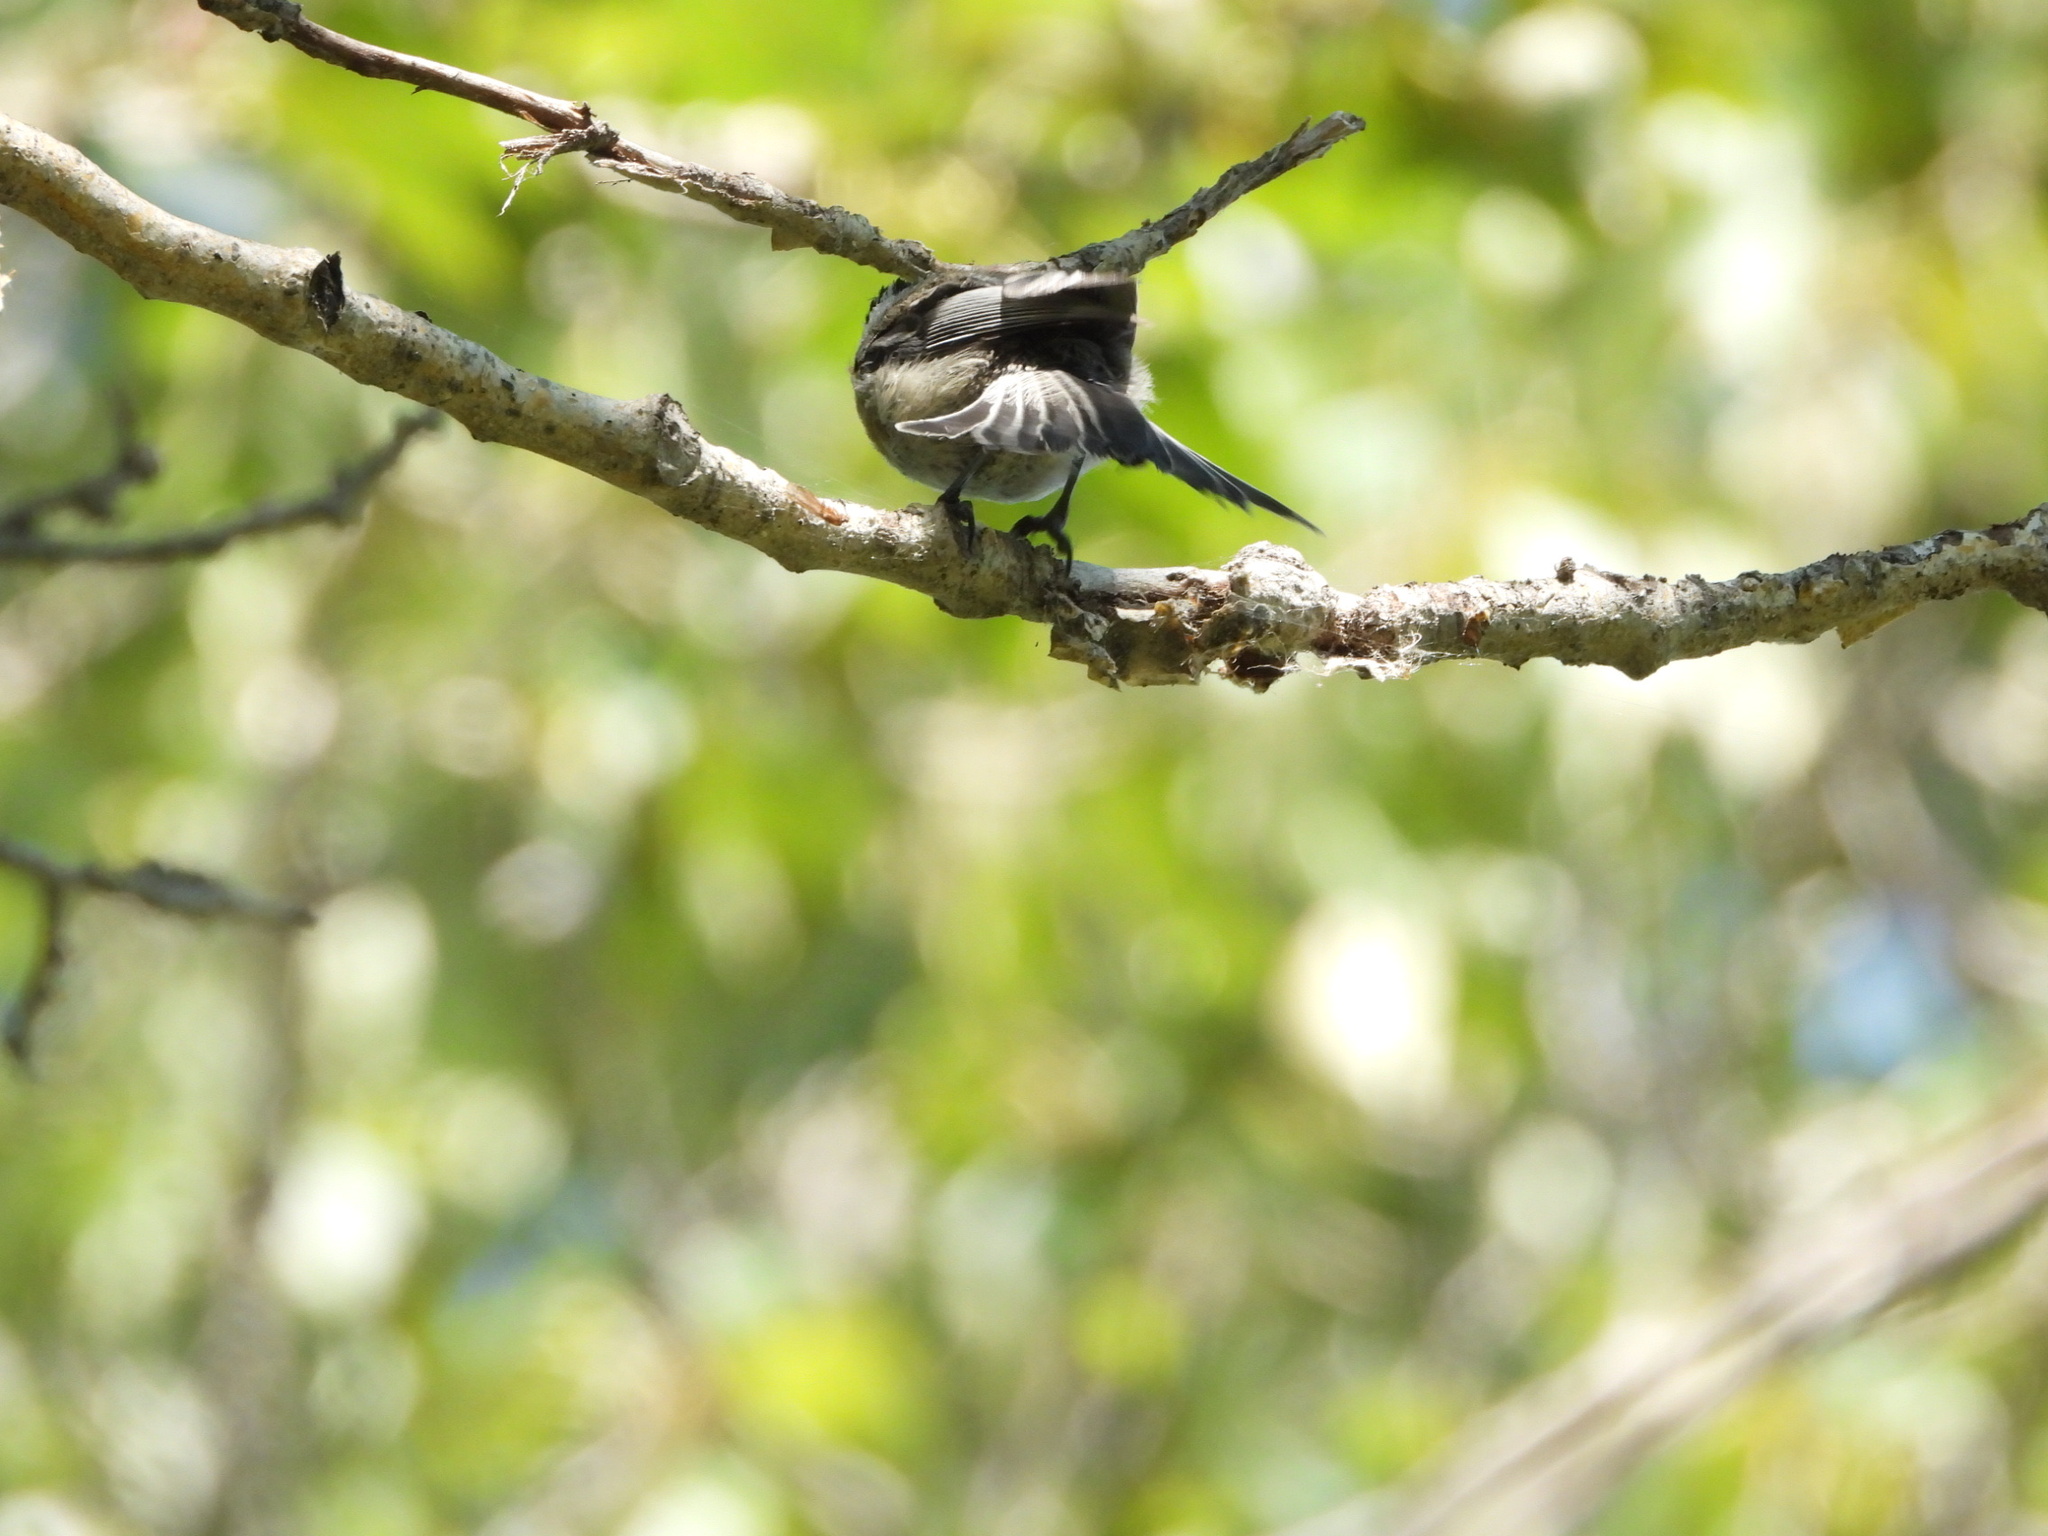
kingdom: Animalia
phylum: Chordata
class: Aves
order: Passeriformes
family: Paridae
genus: Poecile
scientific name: Poecile atricapillus
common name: Black-capped chickadee
